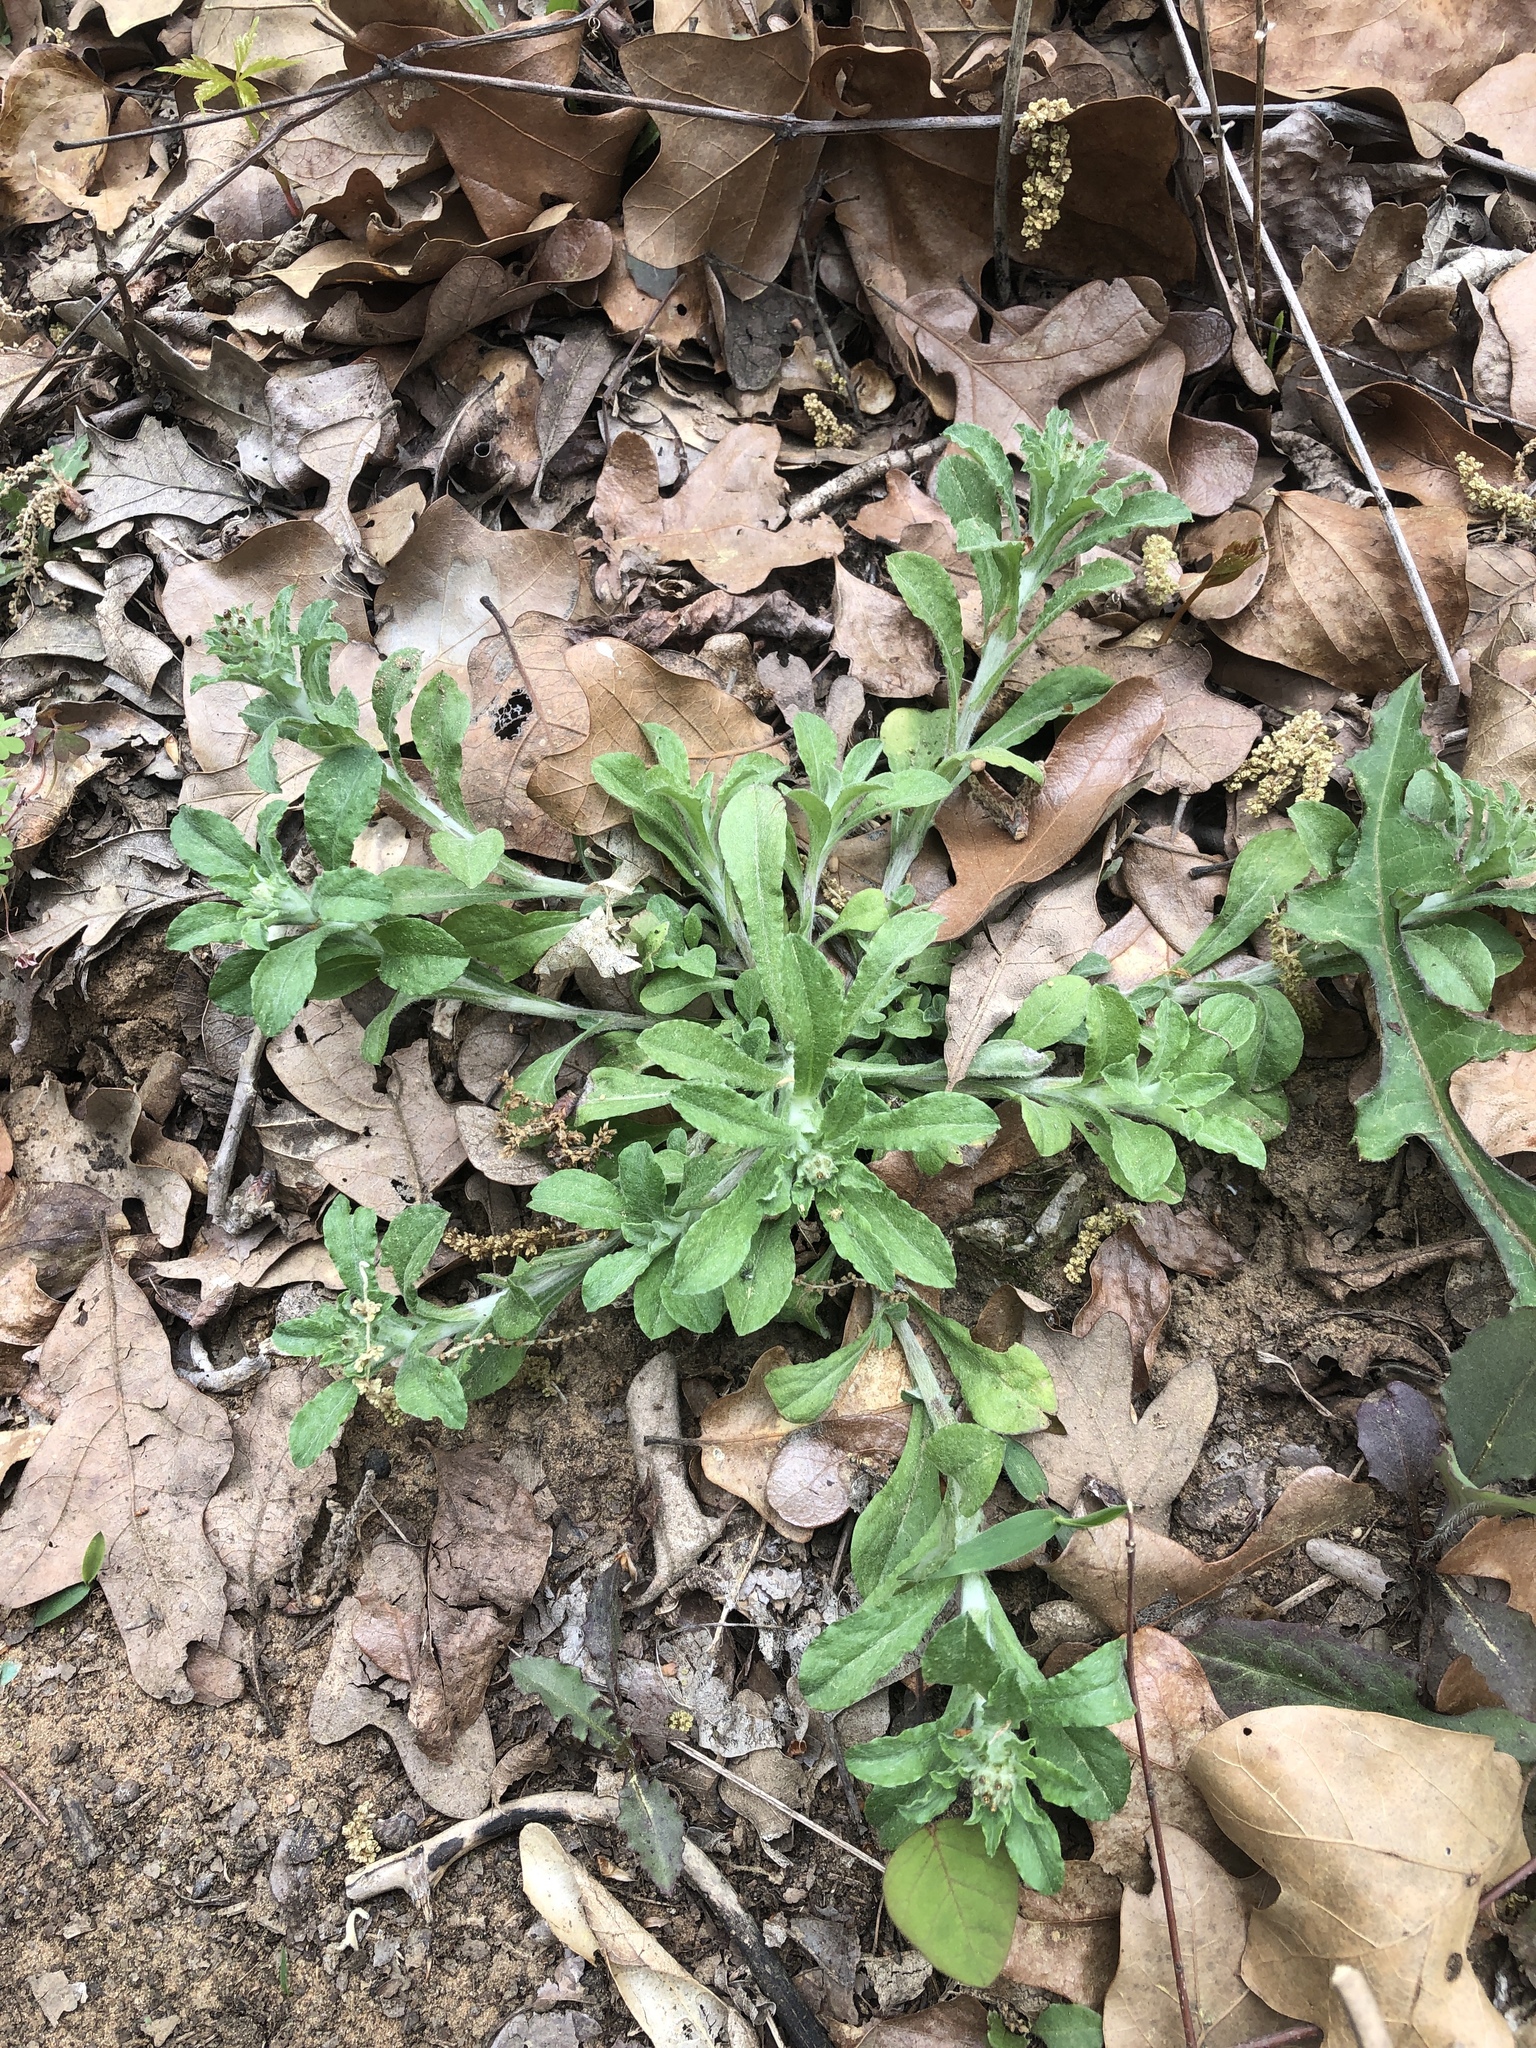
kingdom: Plantae
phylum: Tracheophyta
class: Magnoliopsida
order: Asterales
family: Asteraceae
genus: Gamochaeta
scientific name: Gamochaeta pensylvanica
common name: Pennsylvania everlasting
